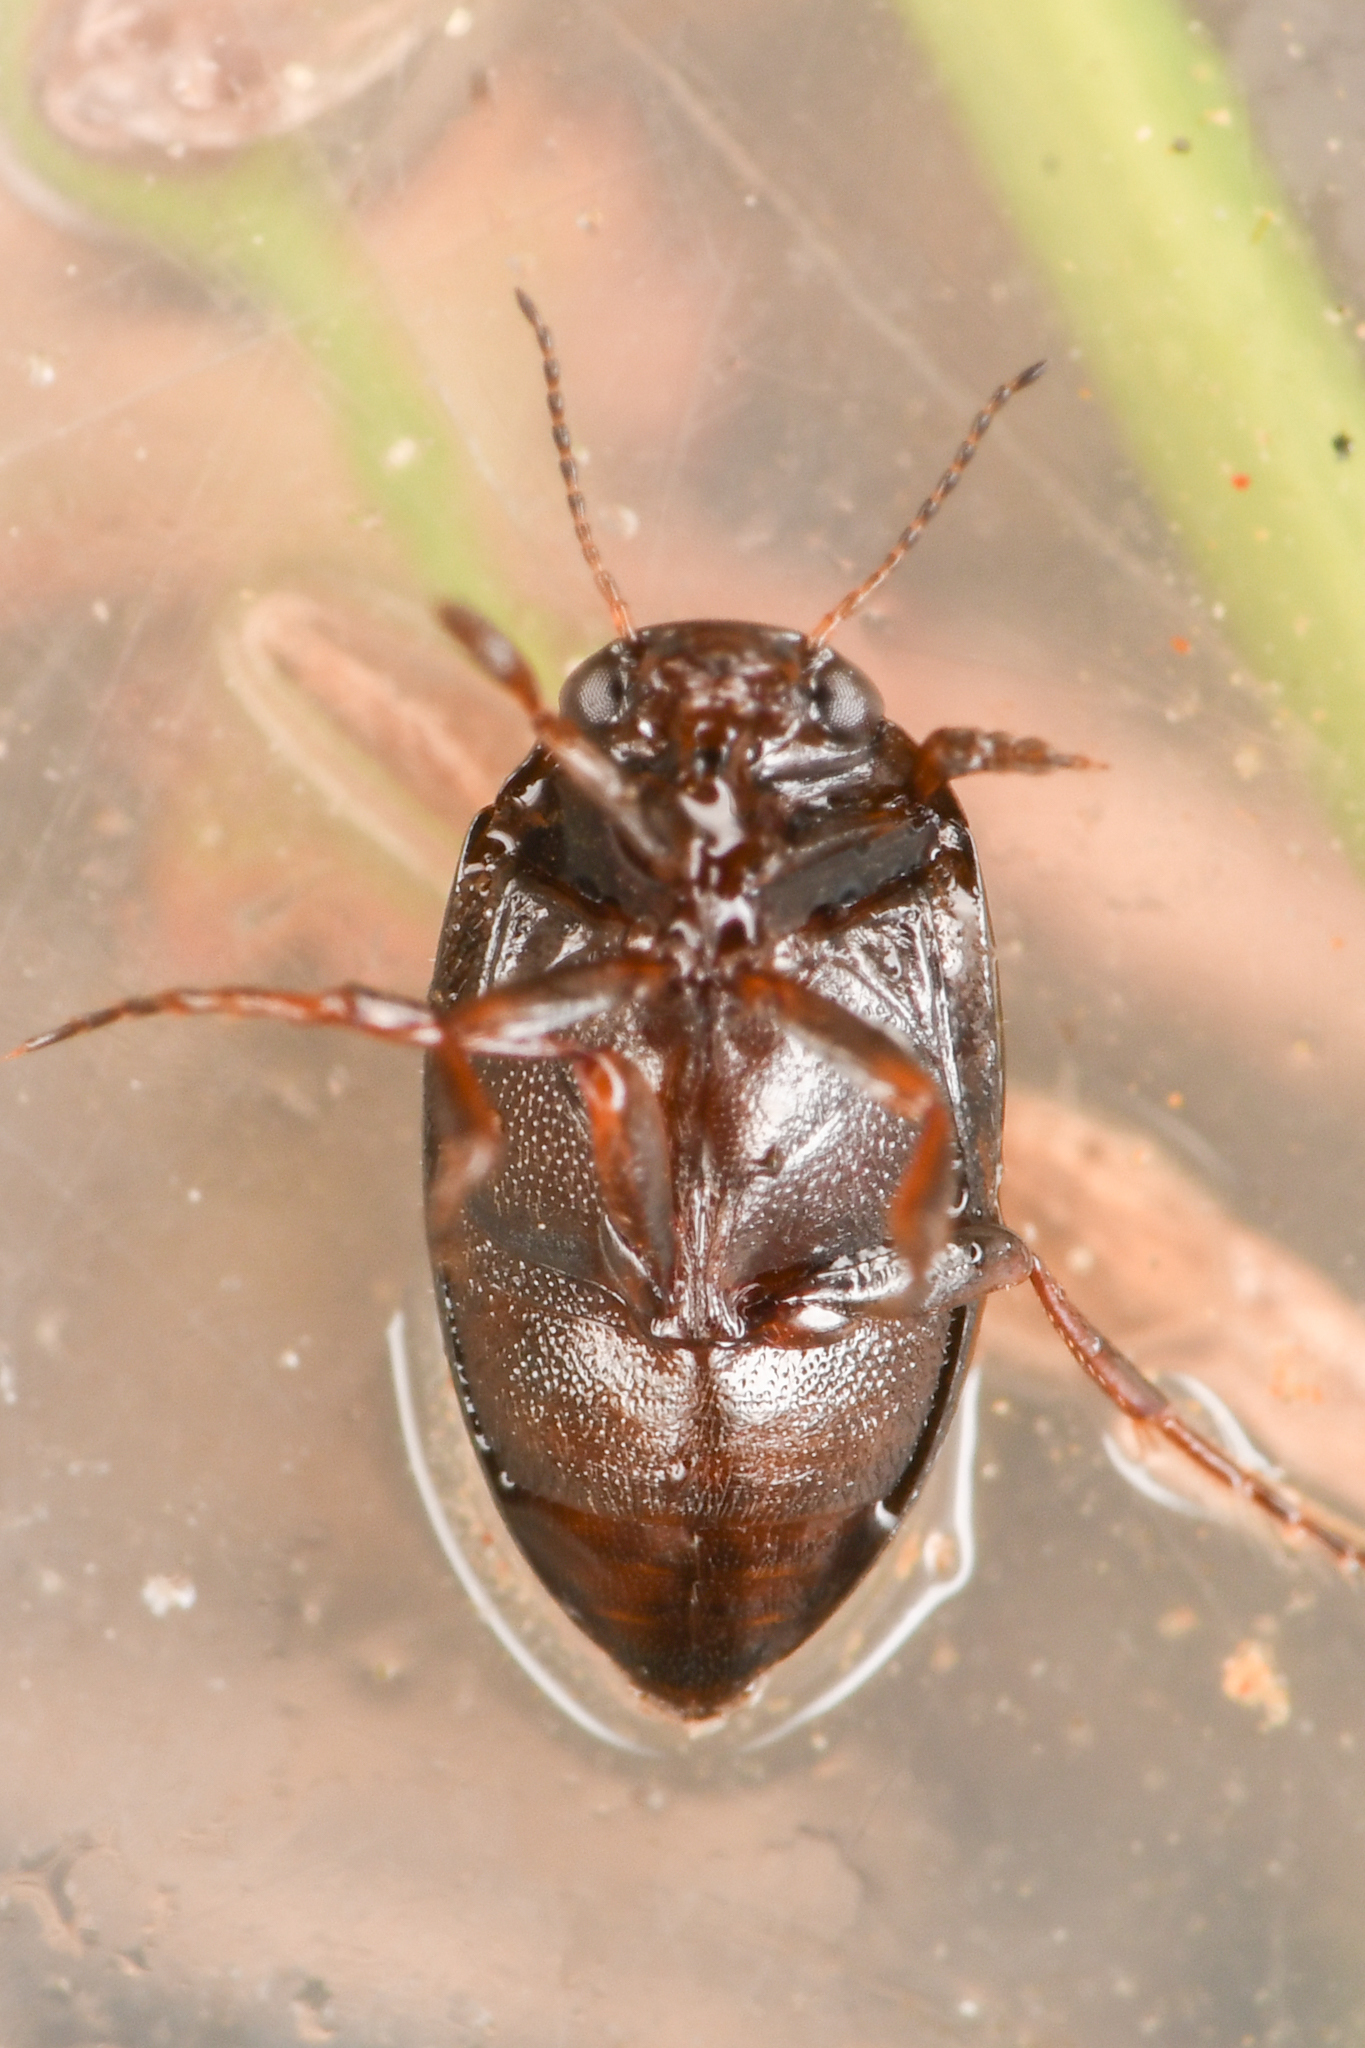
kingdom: Animalia
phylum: Arthropoda
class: Insecta
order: Coleoptera
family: Dytiscidae
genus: Hydroporus
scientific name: Hydroporus
